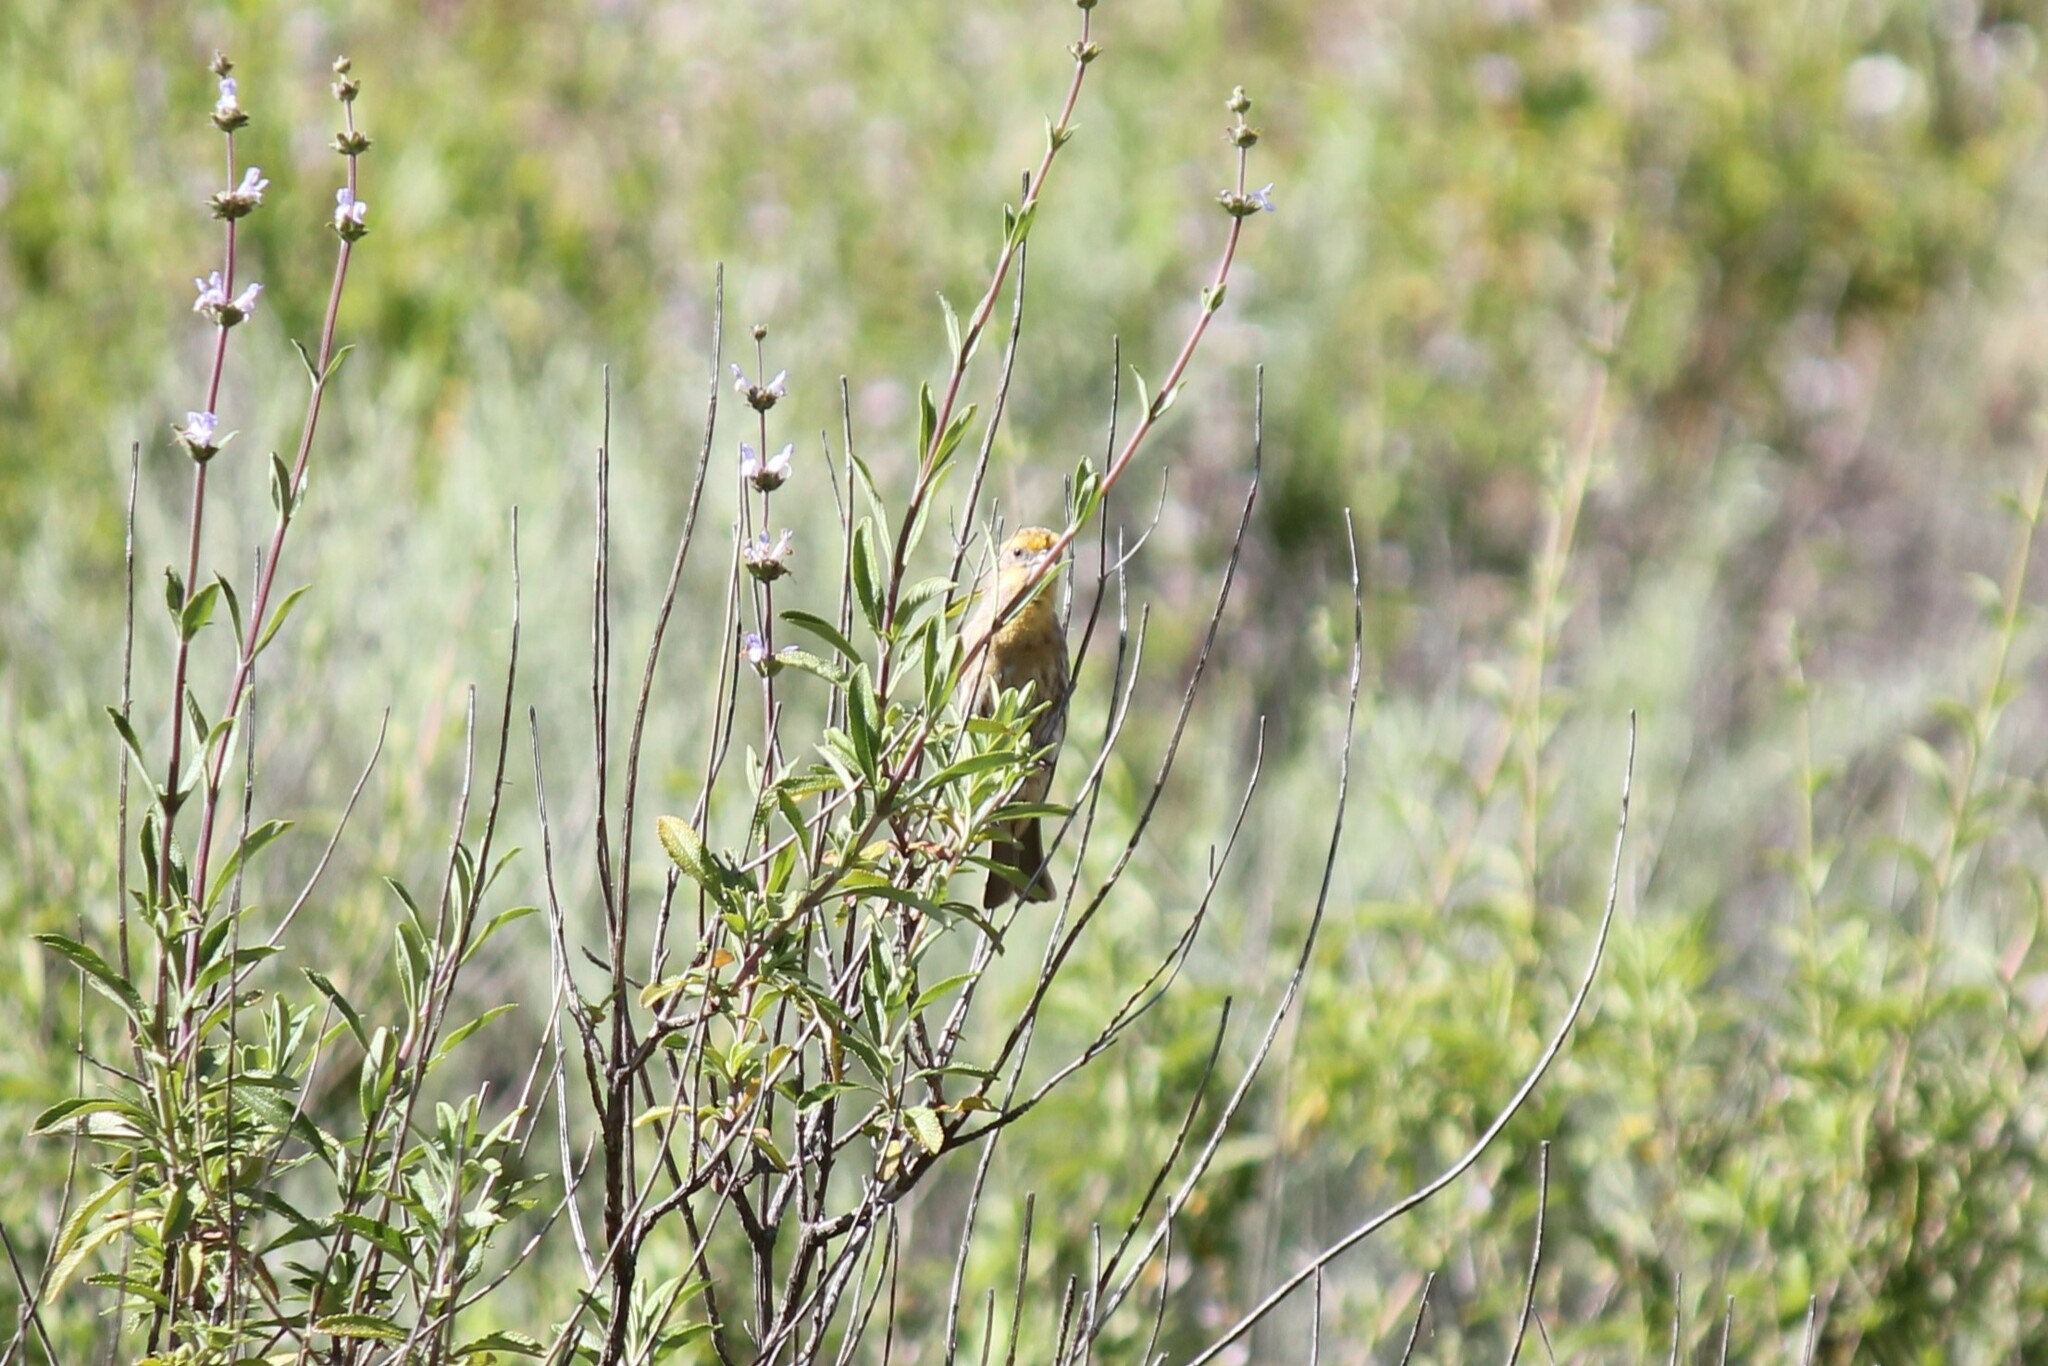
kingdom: Animalia
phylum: Chordata
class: Aves
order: Passeriformes
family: Fringillidae
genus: Haemorhous
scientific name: Haemorhous mexicanus
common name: House finch
